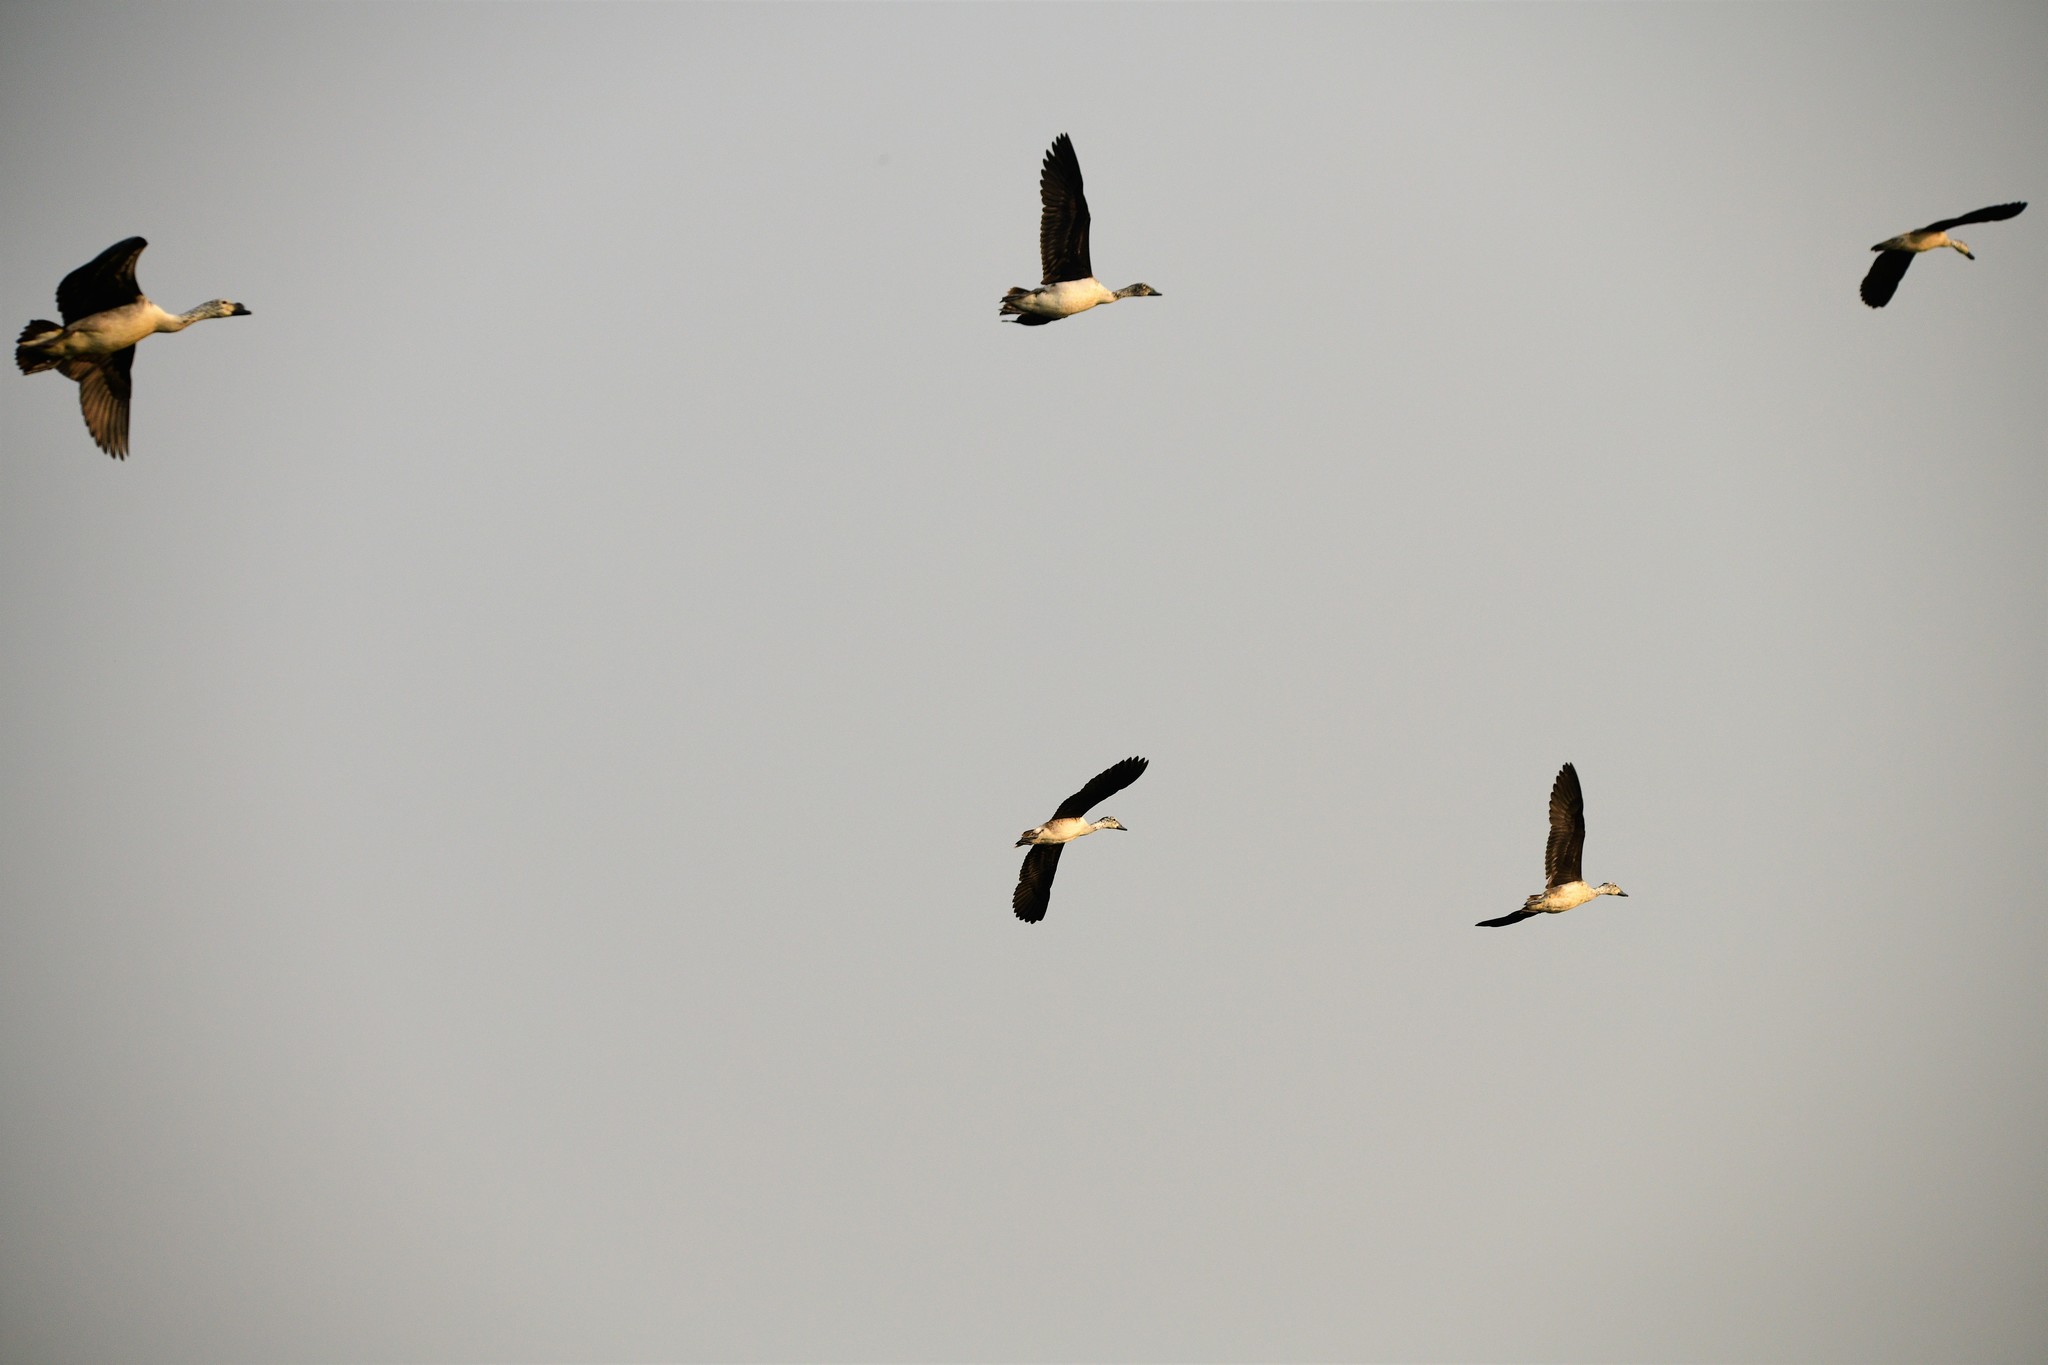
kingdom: Animalia
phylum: Chordata
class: Aves
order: Anseriformes
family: Anatidae
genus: Sarkidiornis
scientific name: Sarkidiornis melanotos
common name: Comb duck
